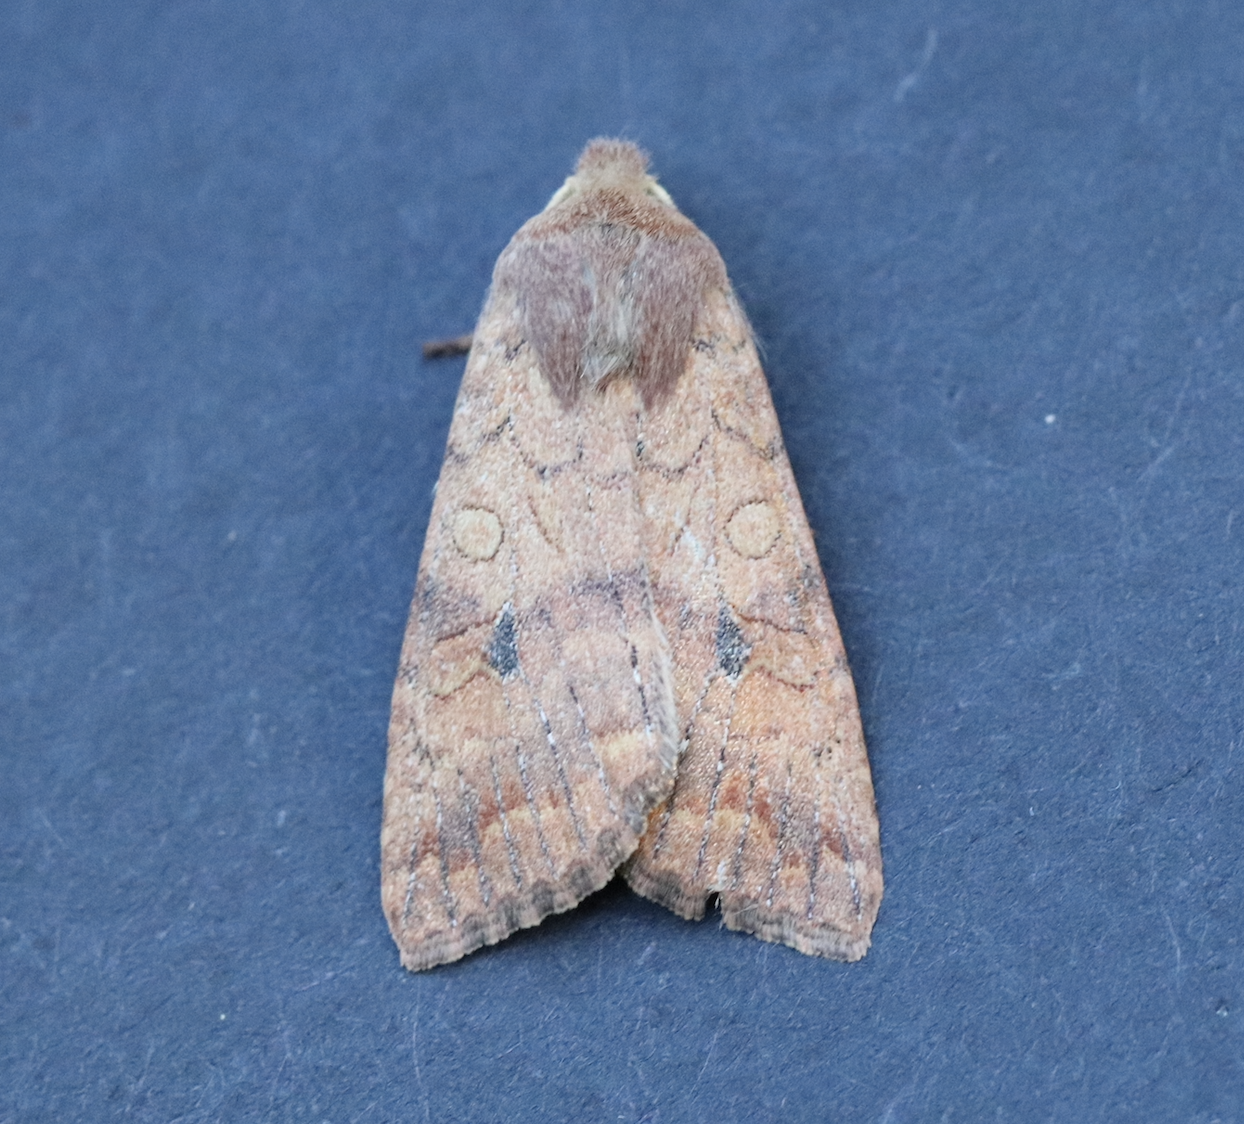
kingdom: Animalia
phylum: Arthropoda
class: Insecta
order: Lepidoptera
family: Noctuidae
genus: Agrochola
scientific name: Agrochola verberata
